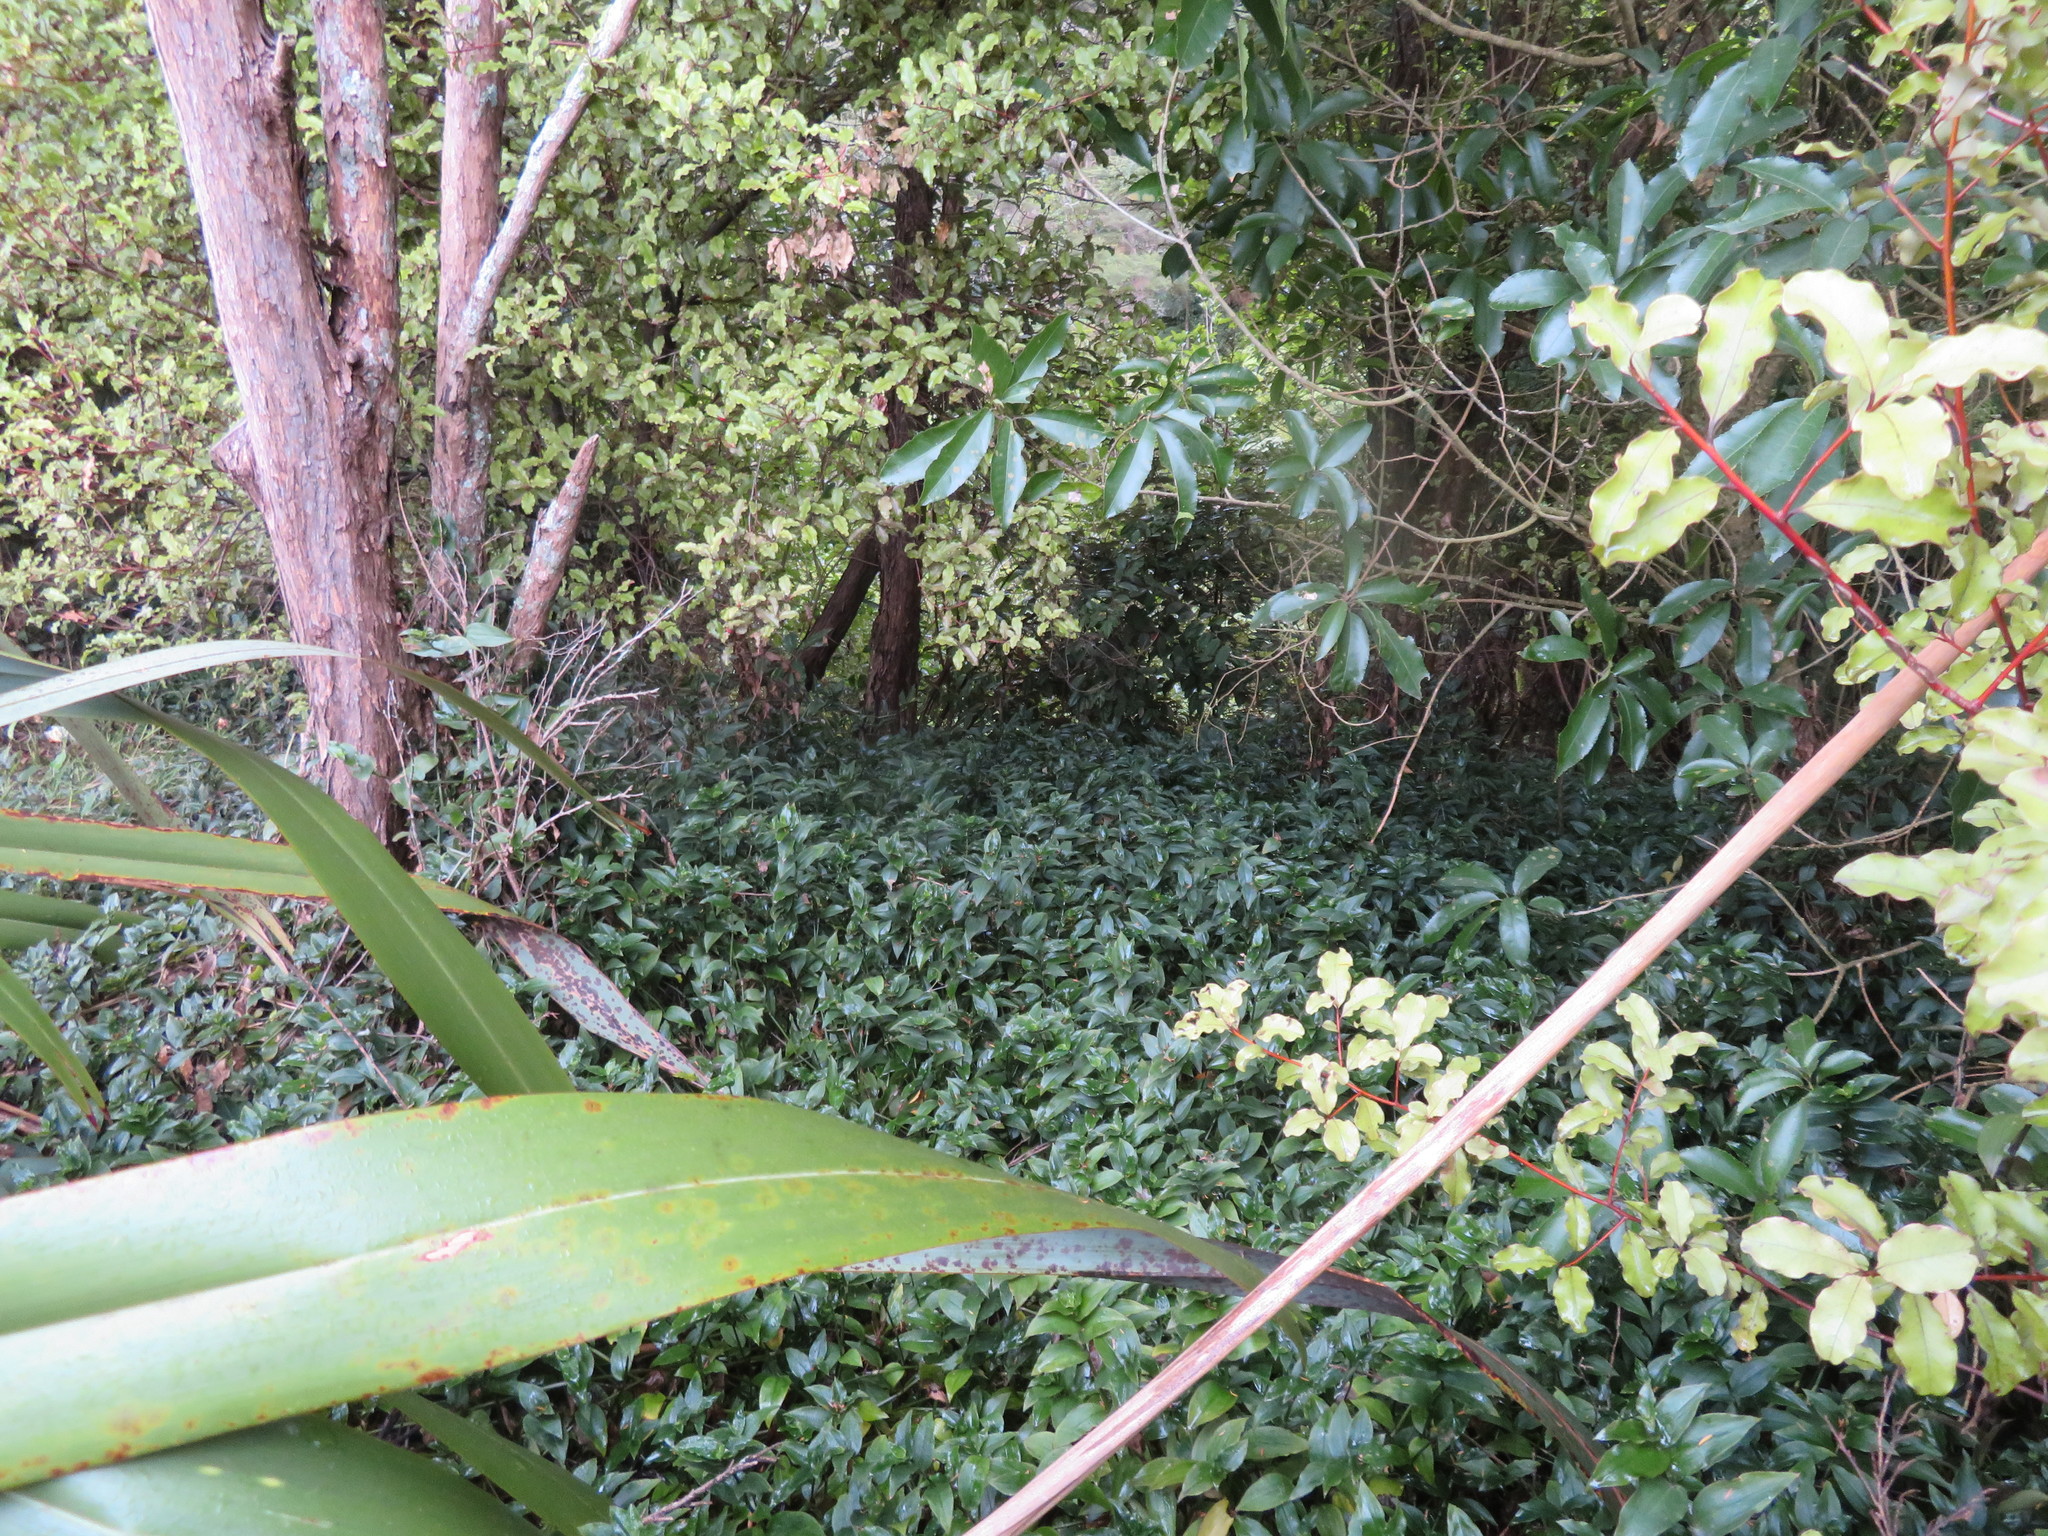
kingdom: Plantae
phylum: Tracheophyta
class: Liliopsida
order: Commelinales
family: Commelinaceae
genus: Tradescantia
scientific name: Tradescantia fluminensis
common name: Wandering-jew
